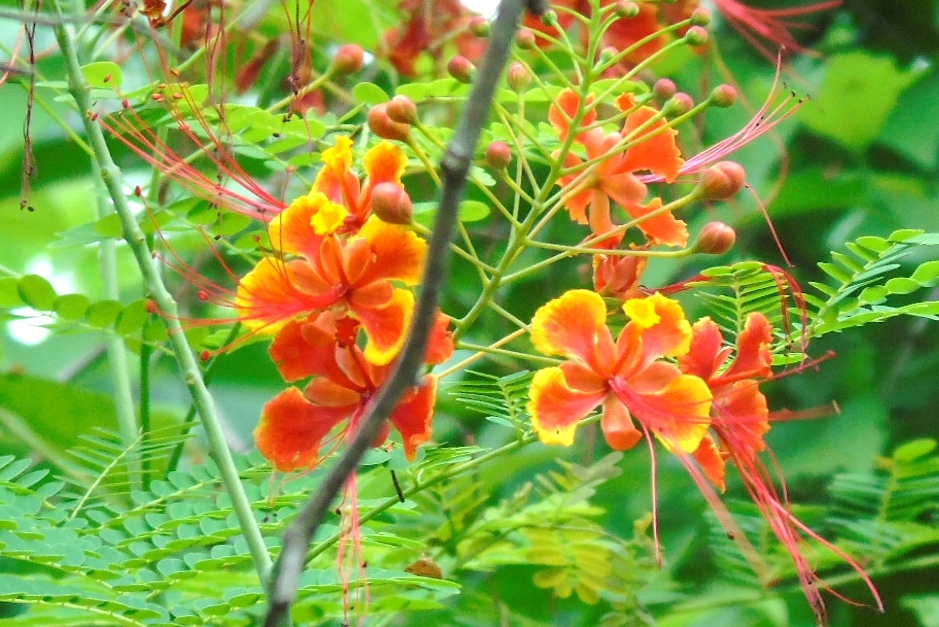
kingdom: Plantae
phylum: Tracheophyta
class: Magnoliopsida
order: Fabales
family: Fabaceae
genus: Caesalpinia
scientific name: Caesalpinia pulcherrima
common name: Pride-of-barbados
